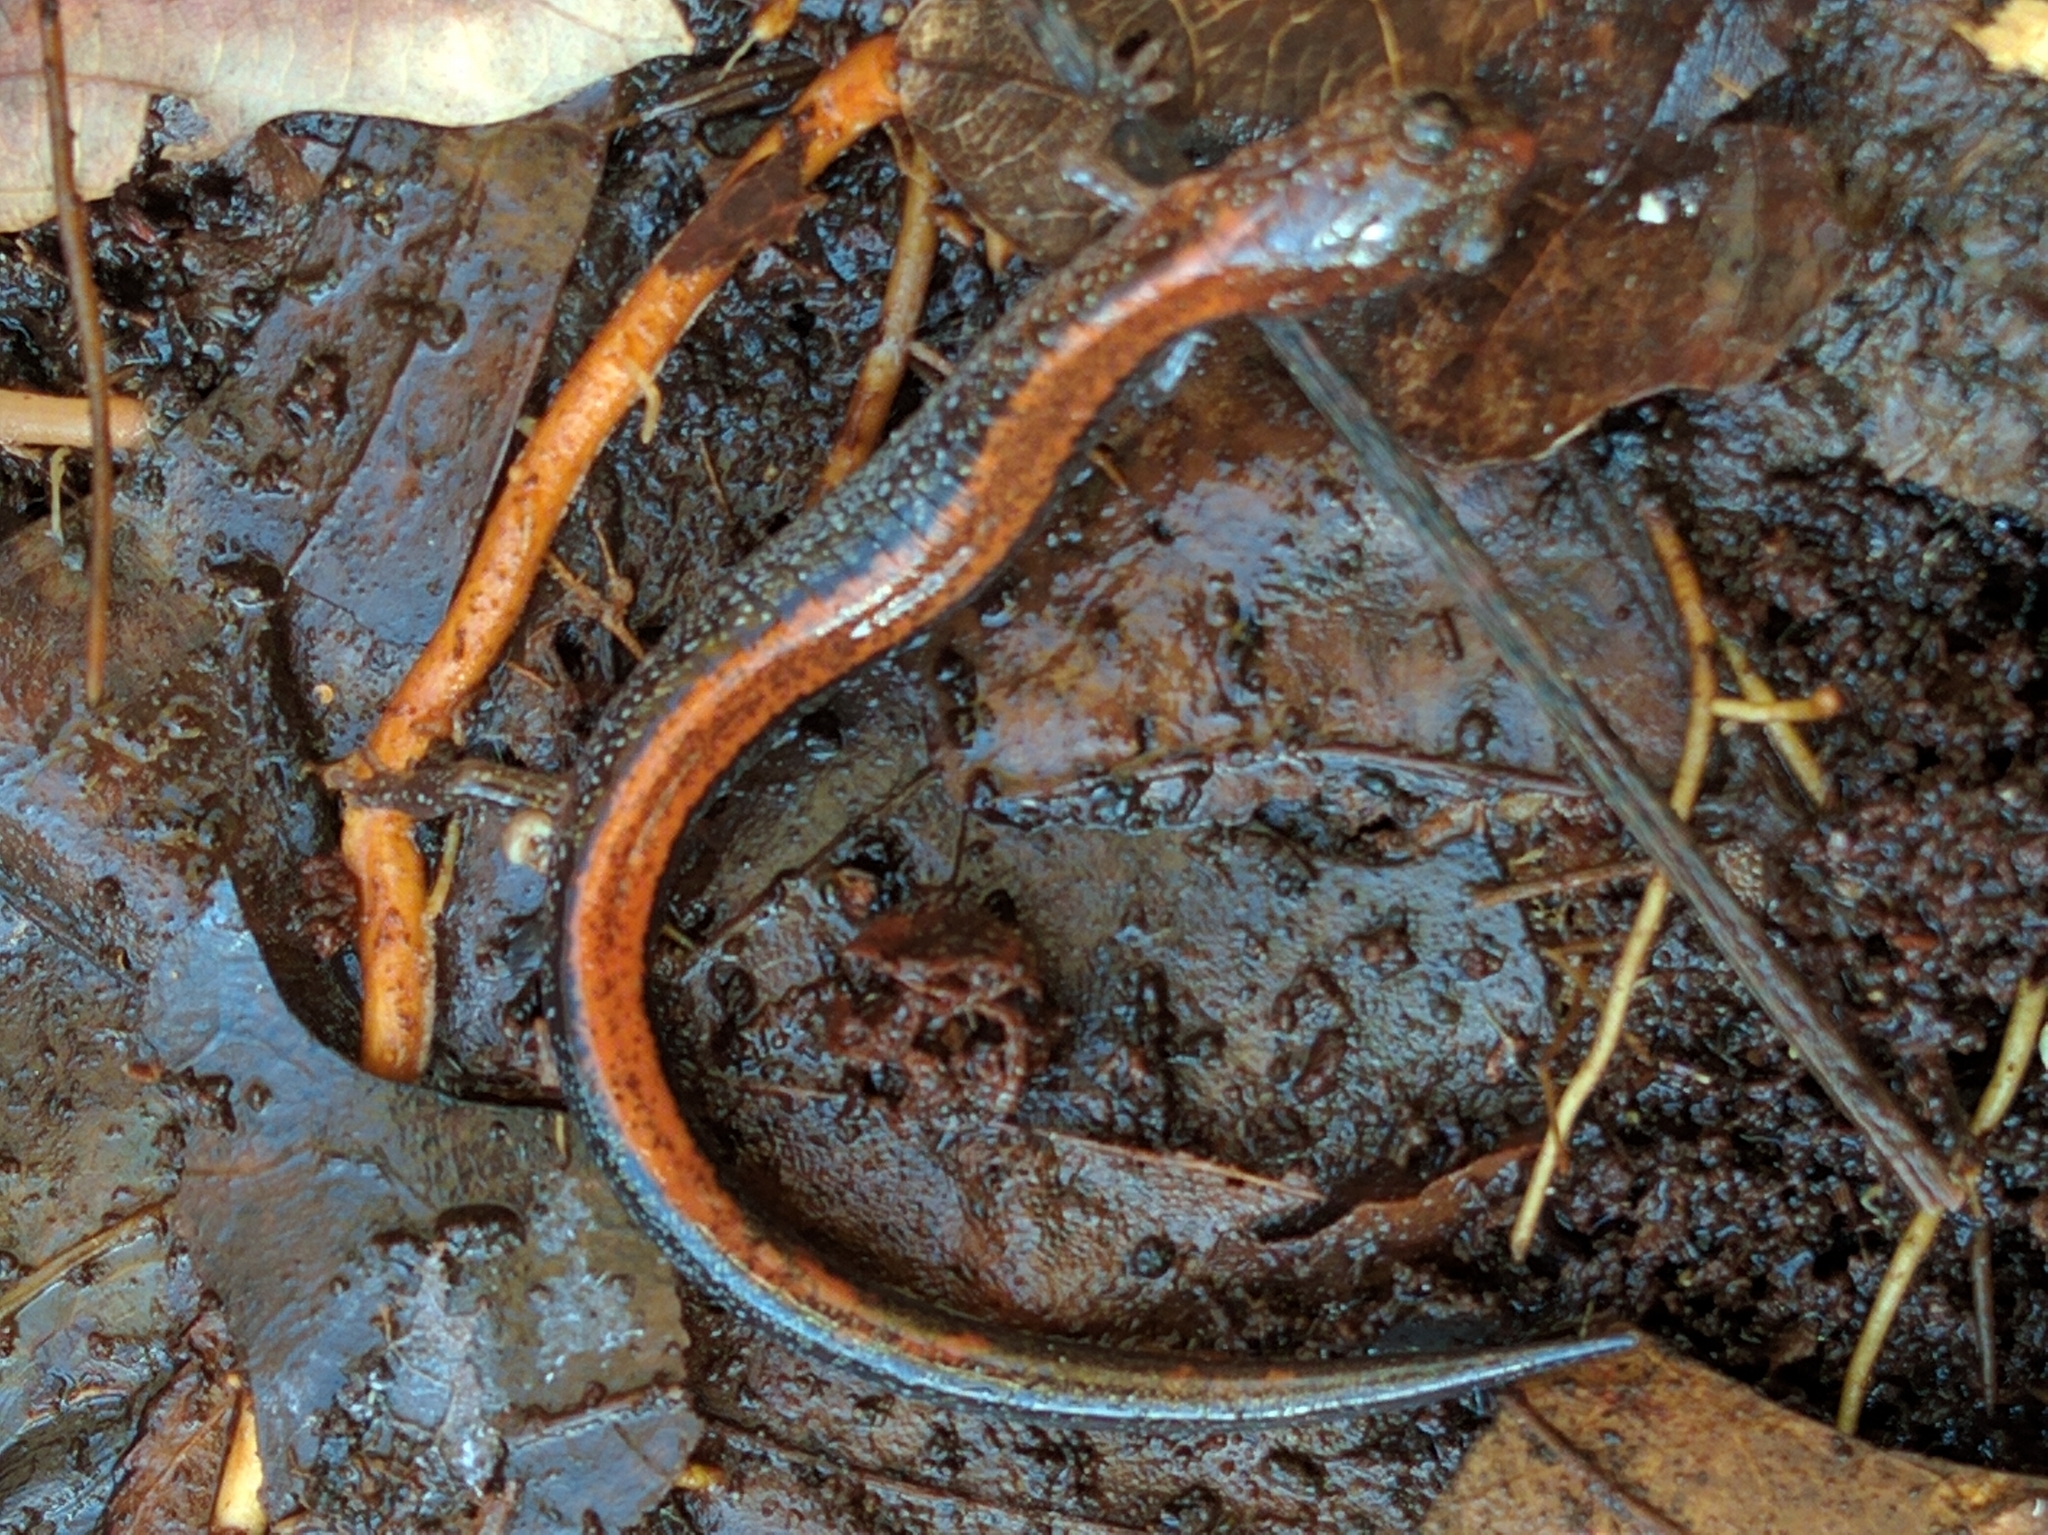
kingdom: Animalia
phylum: Chordata
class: Amphibia
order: Caudata
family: Plethodontidae
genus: Plethodon
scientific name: Plethodon cinereus
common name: Redback salamander
